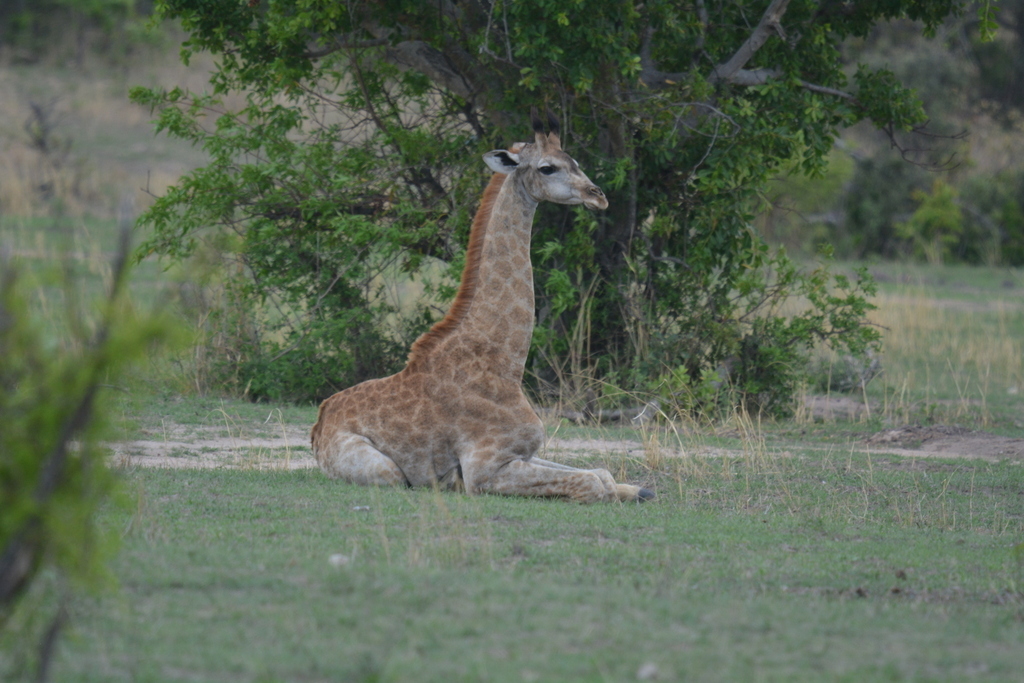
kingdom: Animalia
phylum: Chordata
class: Mammalia
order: Artiodactyla
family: Giraffidae
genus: Giraffa
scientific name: Giraffa giraffa
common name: Southern giraffe
